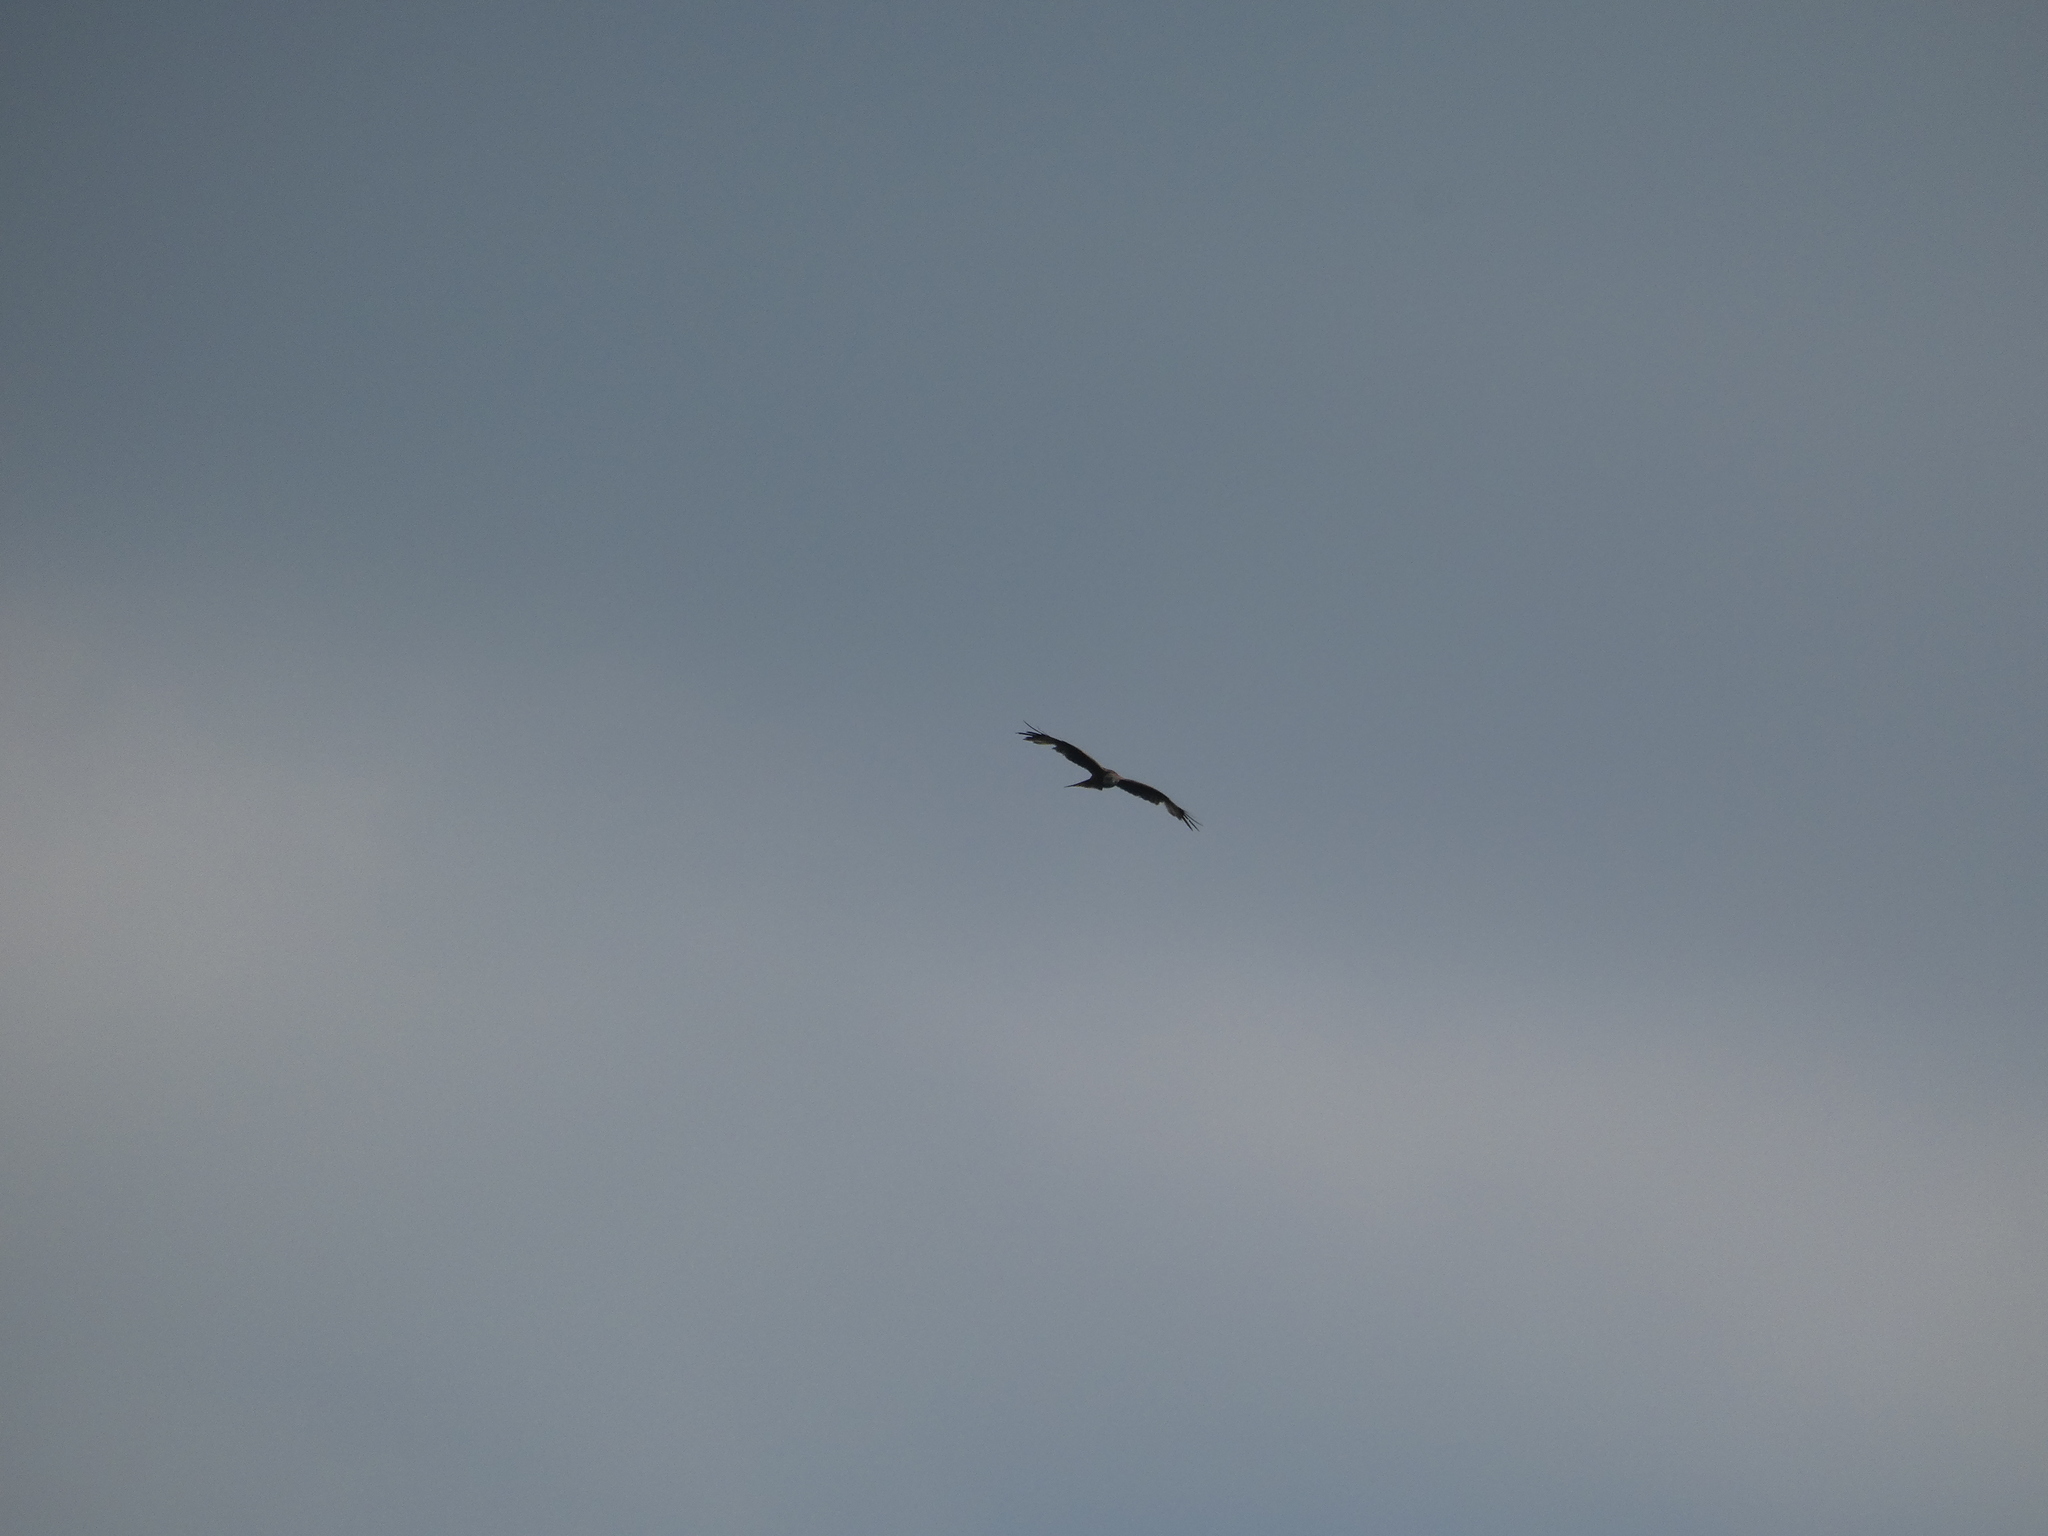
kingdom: Animalia
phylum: Chordata
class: Aves
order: Accipitriformes
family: Accipitridae
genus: Milvus
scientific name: Milvus milvus
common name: Red kite
